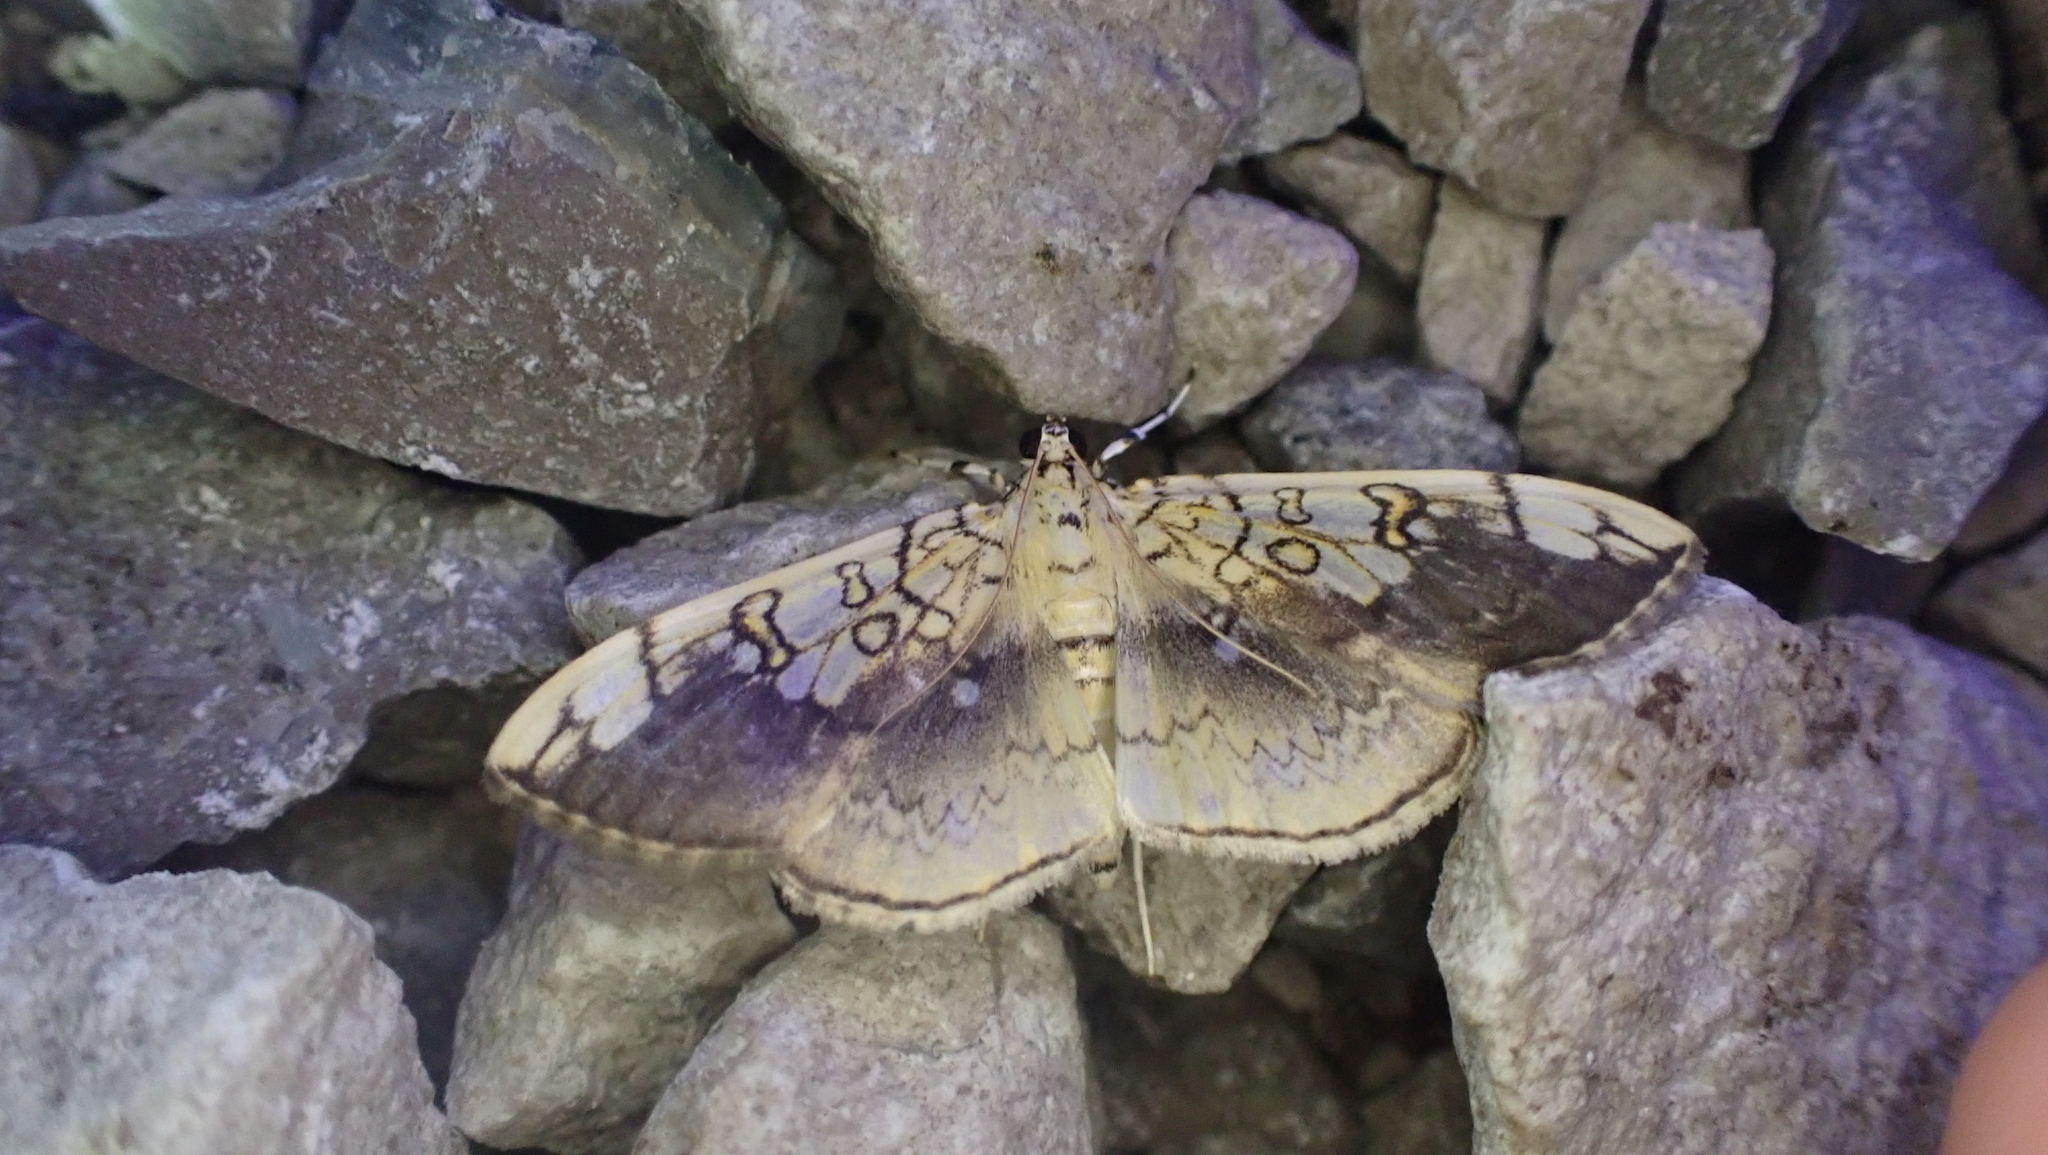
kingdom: Animalia
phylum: Arthropoda
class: Insecta
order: Lepidoptera
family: Crambidae
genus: Pantographa
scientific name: Pantographa limata
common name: Basswood leafroller moth
